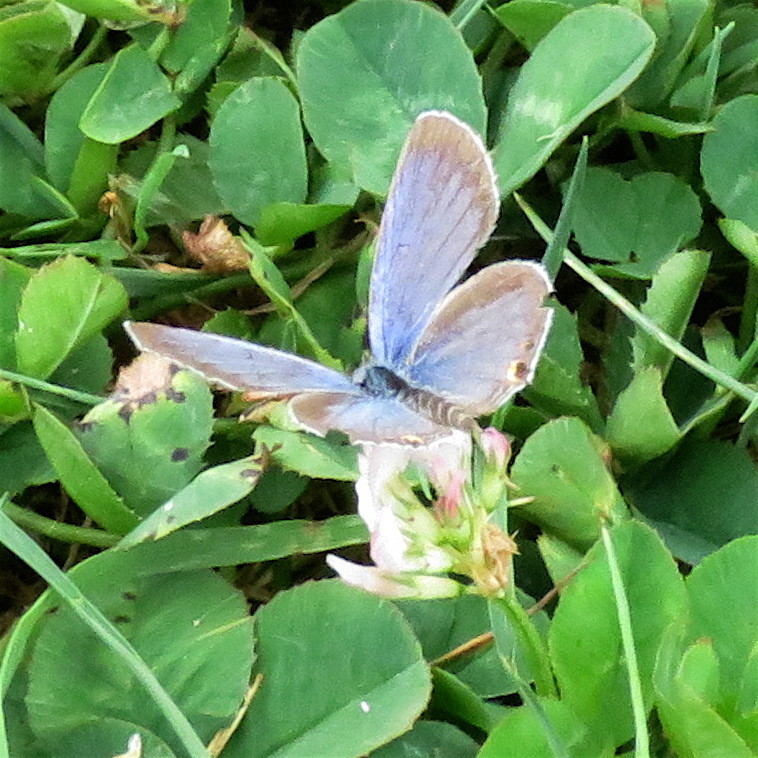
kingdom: Animalia
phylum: Arthropoda
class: Insecta
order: Lepidoptera
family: Lycaenidae
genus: Elkalyce
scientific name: Elkalyce comyntas
